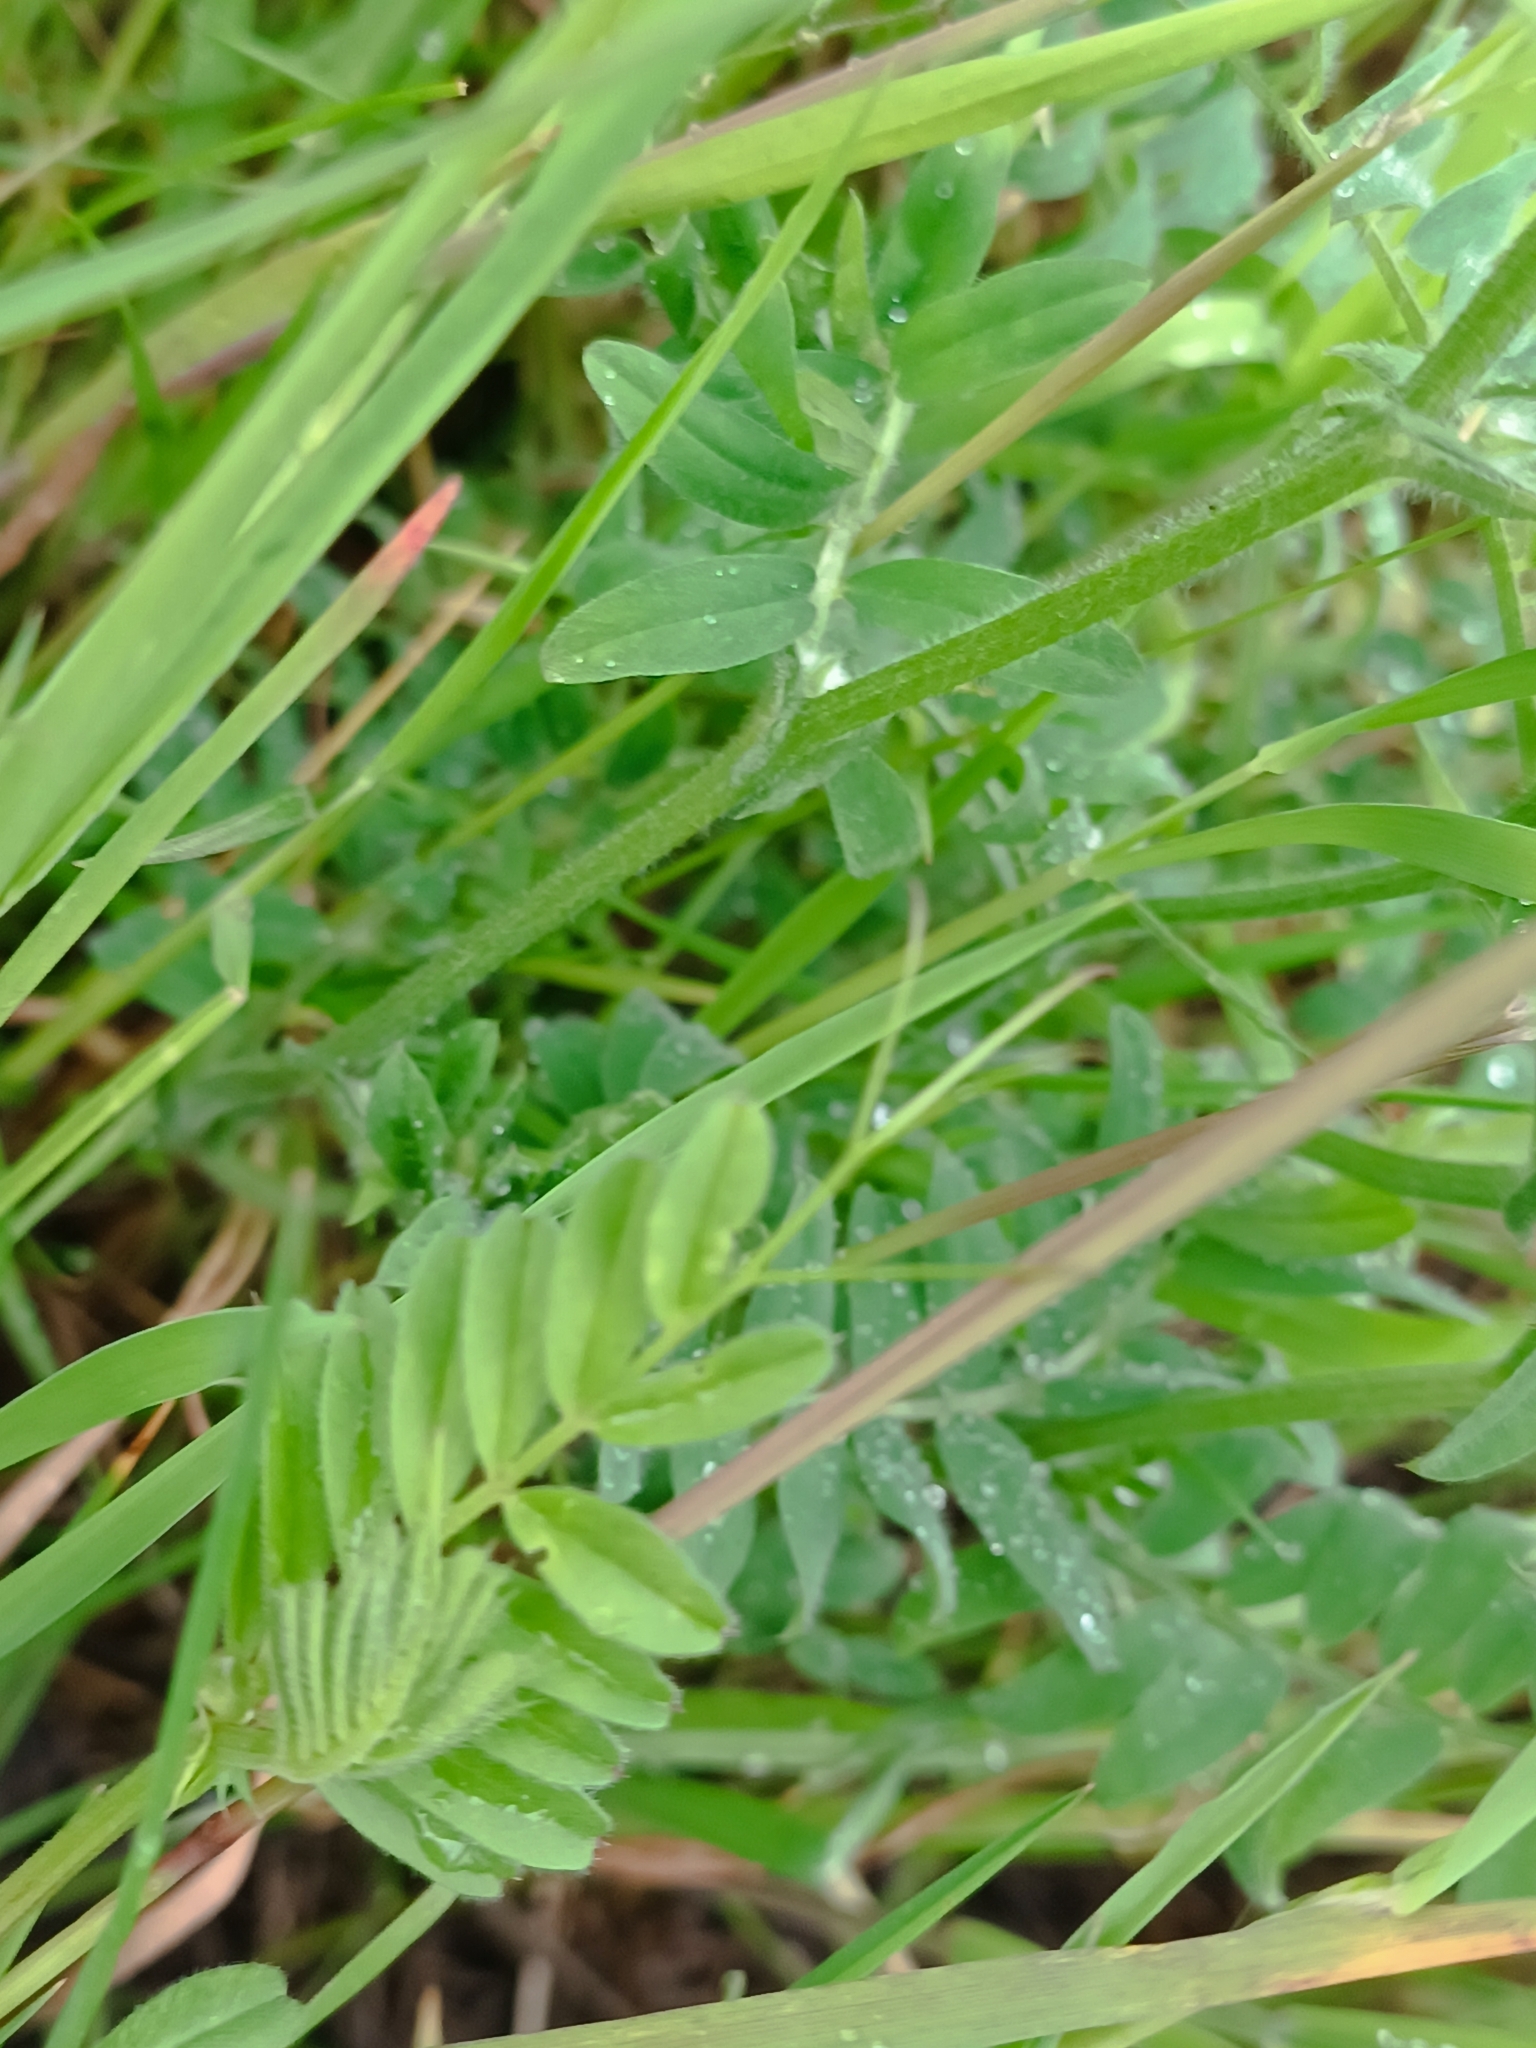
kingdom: Plantae
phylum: Tracheophyta
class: Magnoliopsida
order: Fabales
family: Fabaceae
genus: Vicia
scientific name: Vicia sativa
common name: Garden vetch
